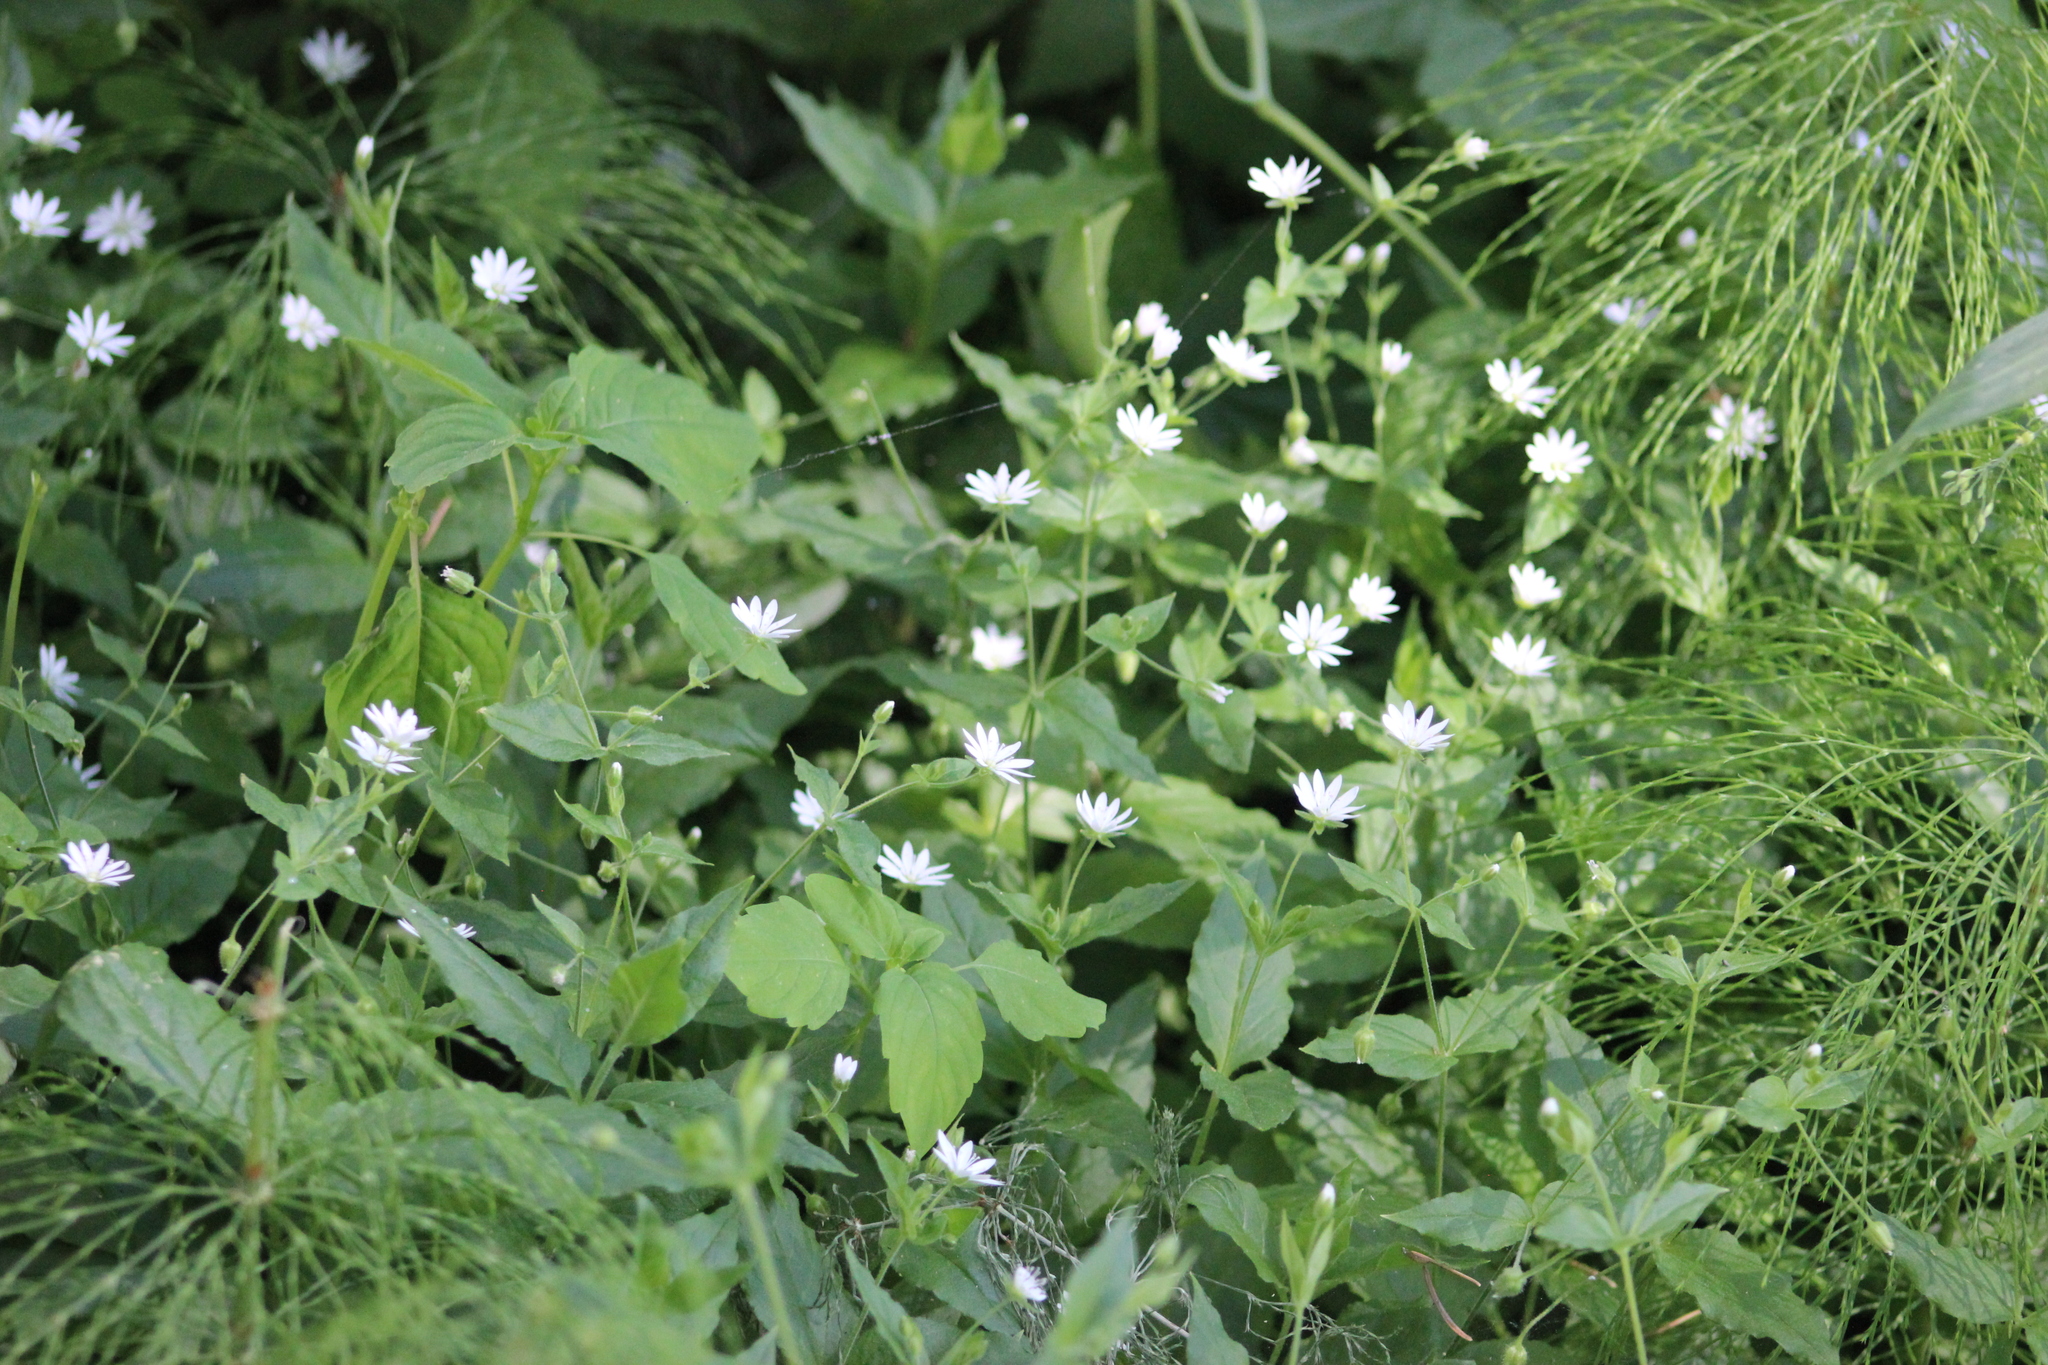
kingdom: Plantae
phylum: Tracheophyta
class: Magnoliopsida
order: Caryophyllales
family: Caryophyllaceae
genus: Stellaria
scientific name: Stellaria bungeana
